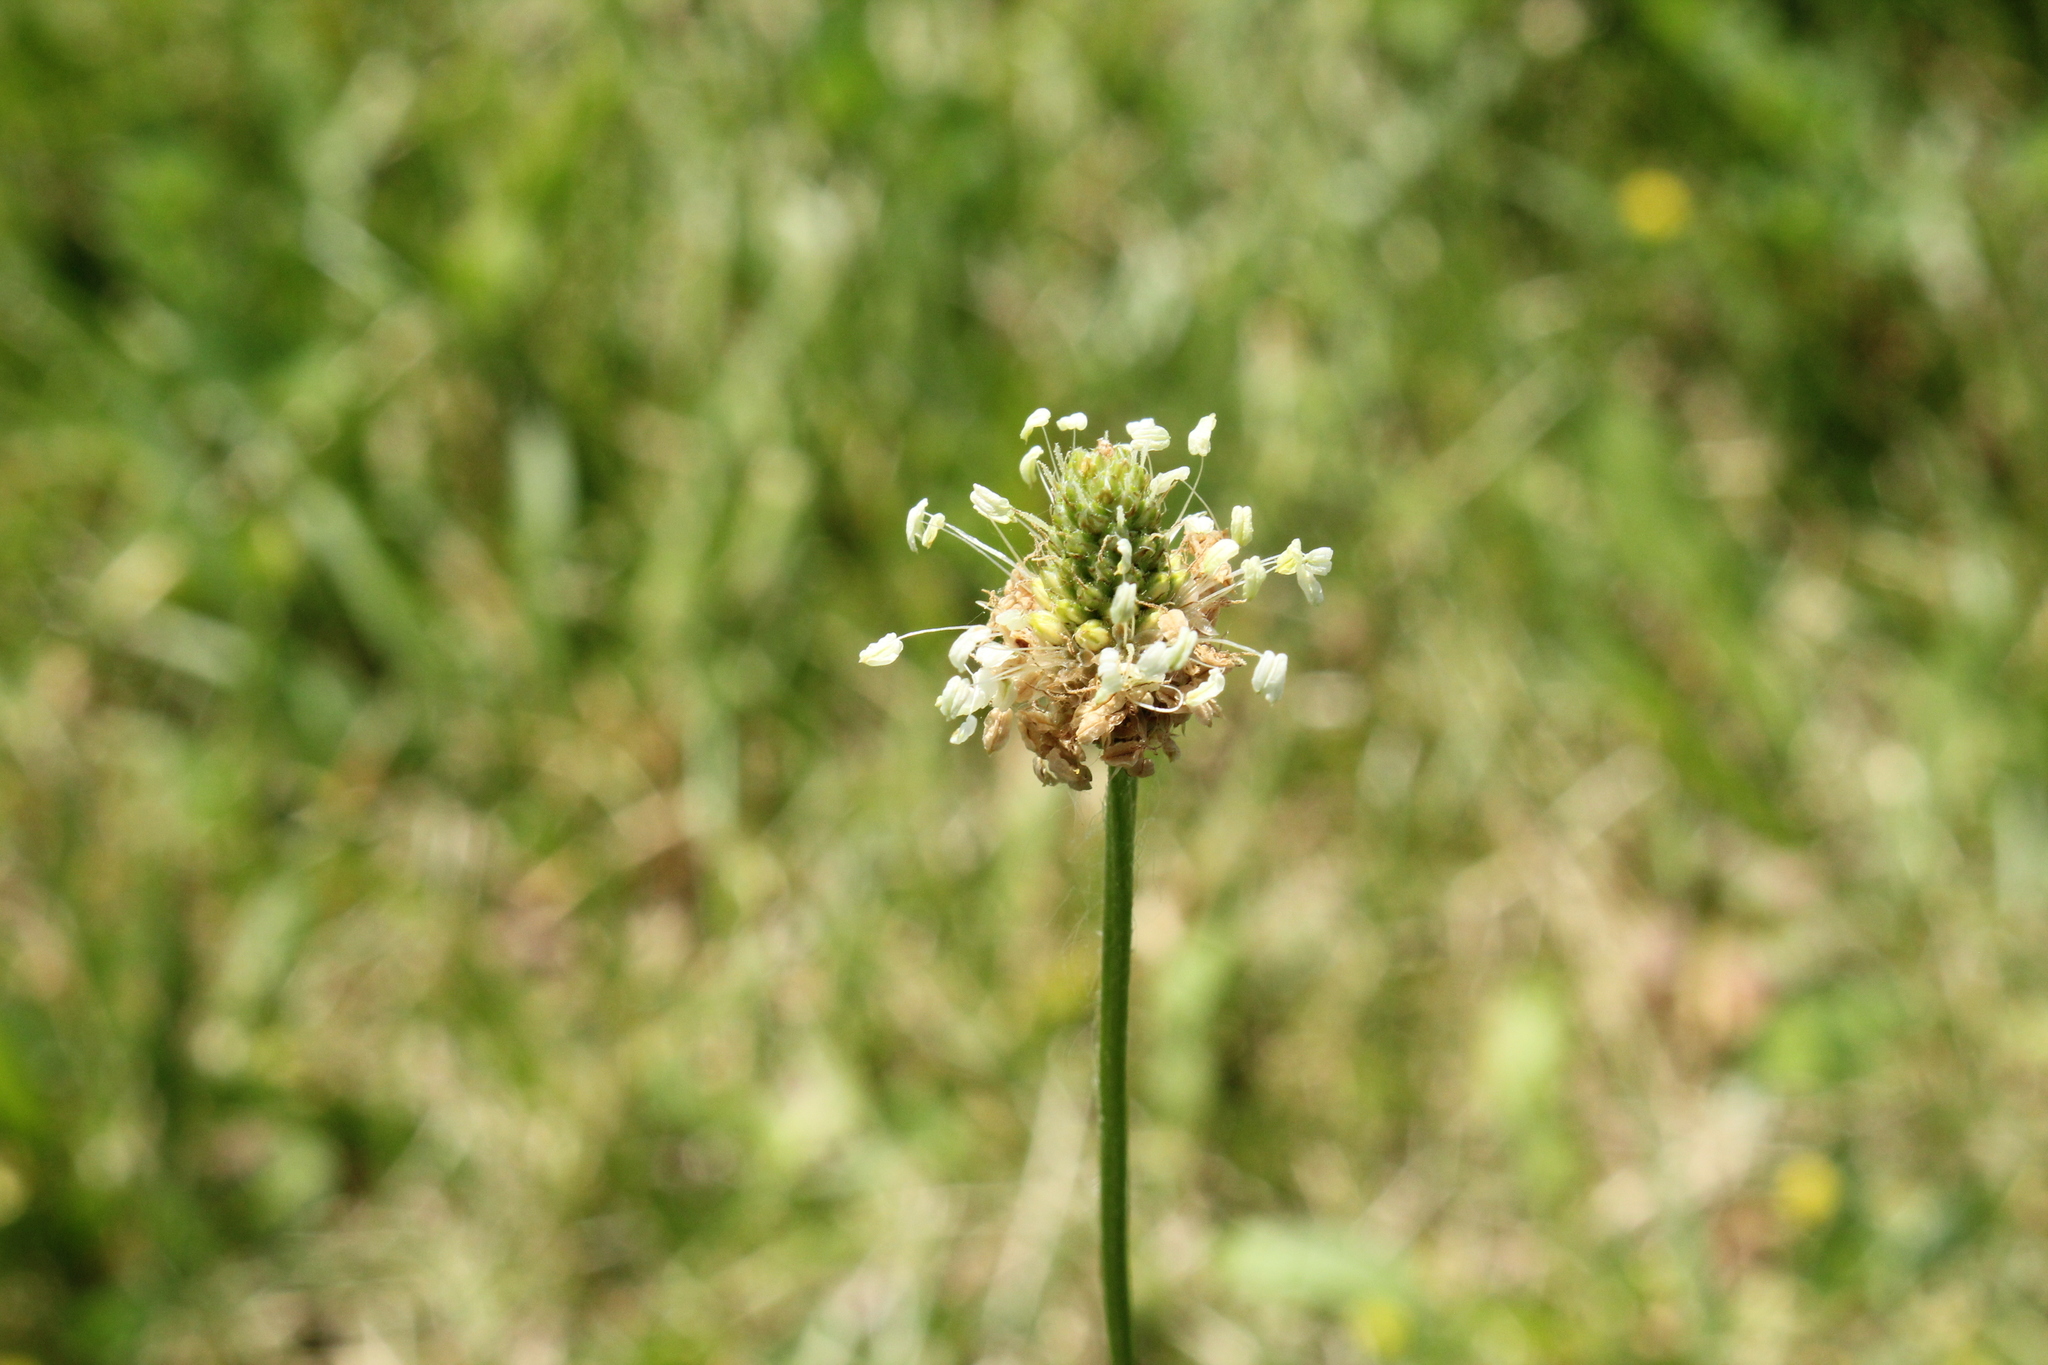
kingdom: Plantae
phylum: Tracheophyta
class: Magnoliopsida
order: Lamiales
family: Plantaginaceae
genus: Plantago
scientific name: Plantago lanceolata
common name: Ribwort plantain
